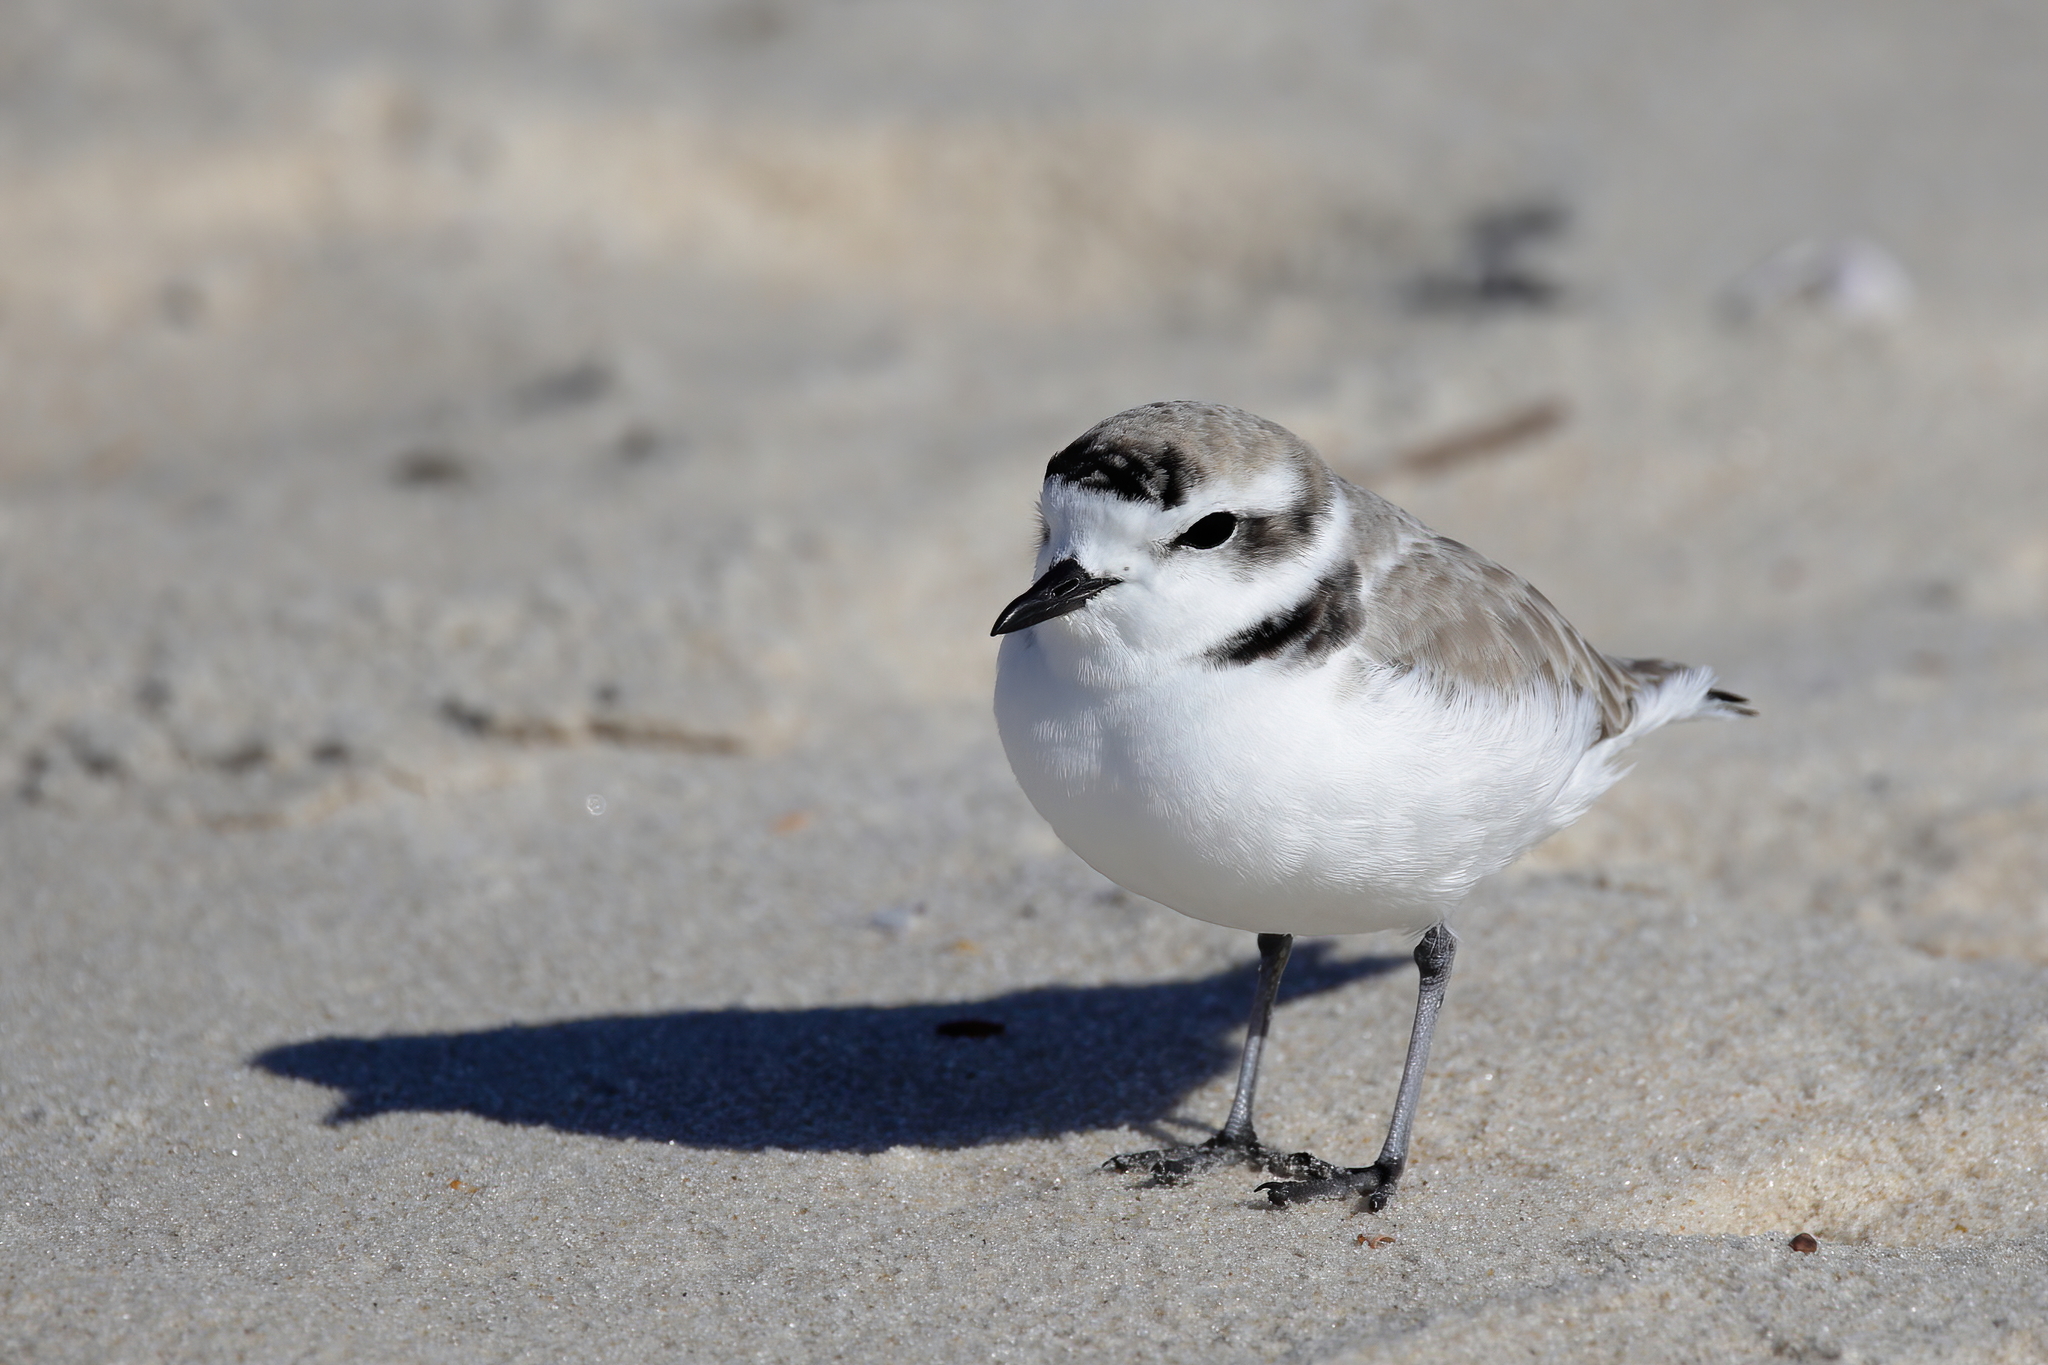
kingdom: Animalia
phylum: Chordata
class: Aves
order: Charadriiformes
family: Charadriidae
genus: Anarhynchus
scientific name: Anarhynchus
